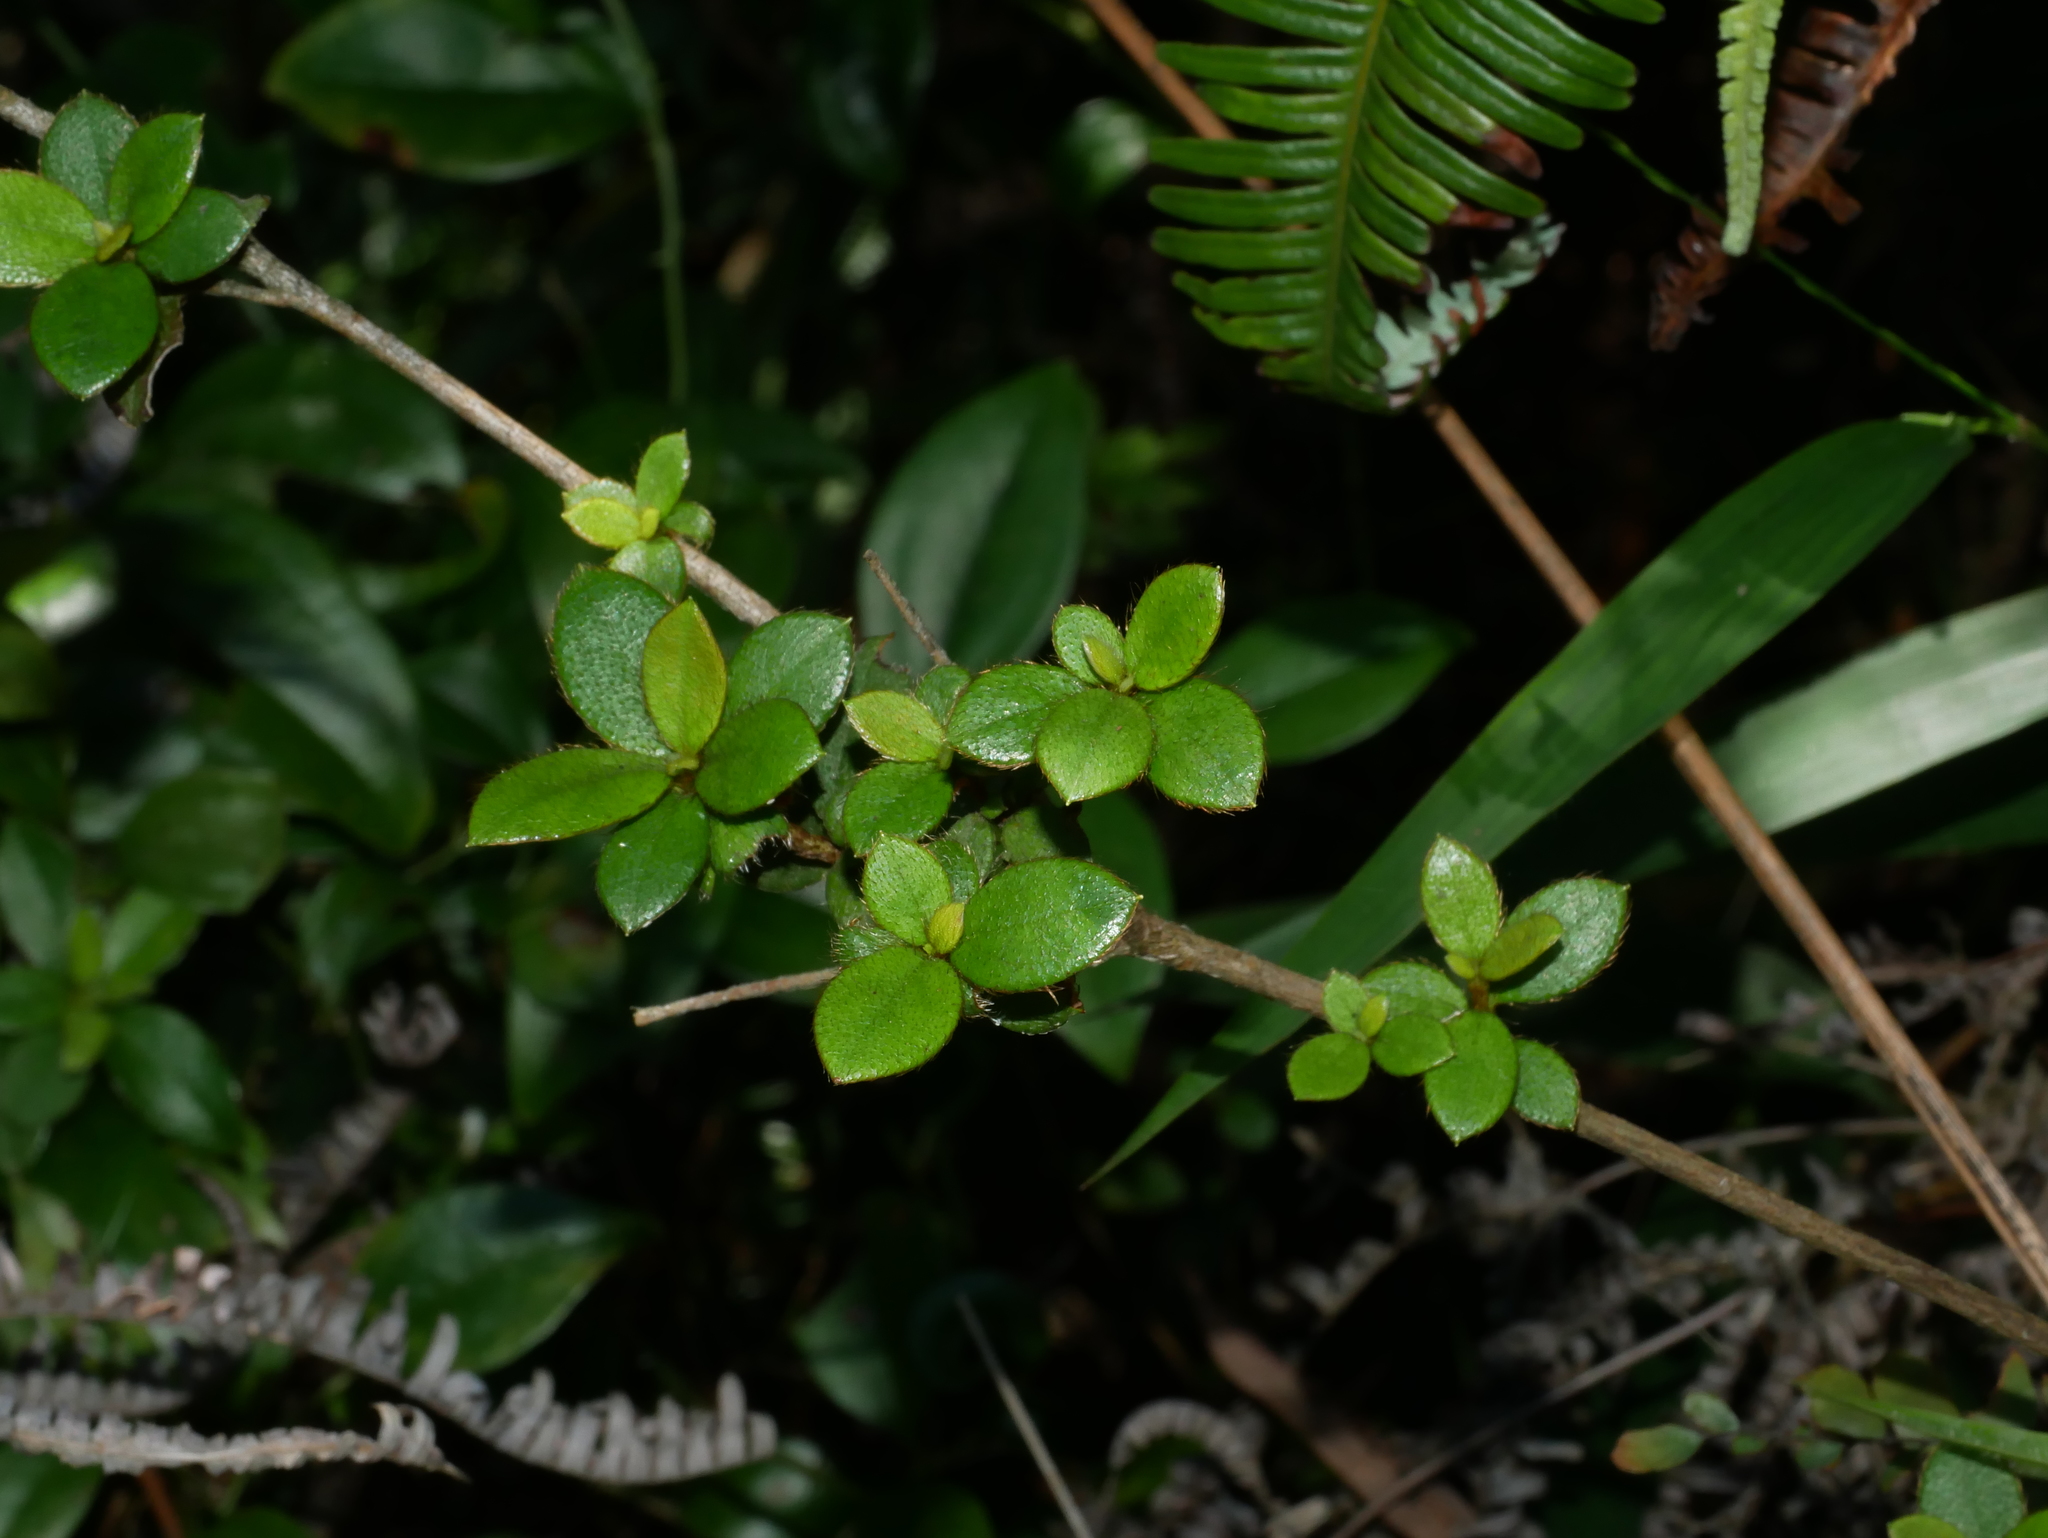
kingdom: Plantae
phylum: Tracheophyta
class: Magnoliopsida
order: Ericales
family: Ericaceae
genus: Rhododendron
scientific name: Rhododendron longiperulatum
